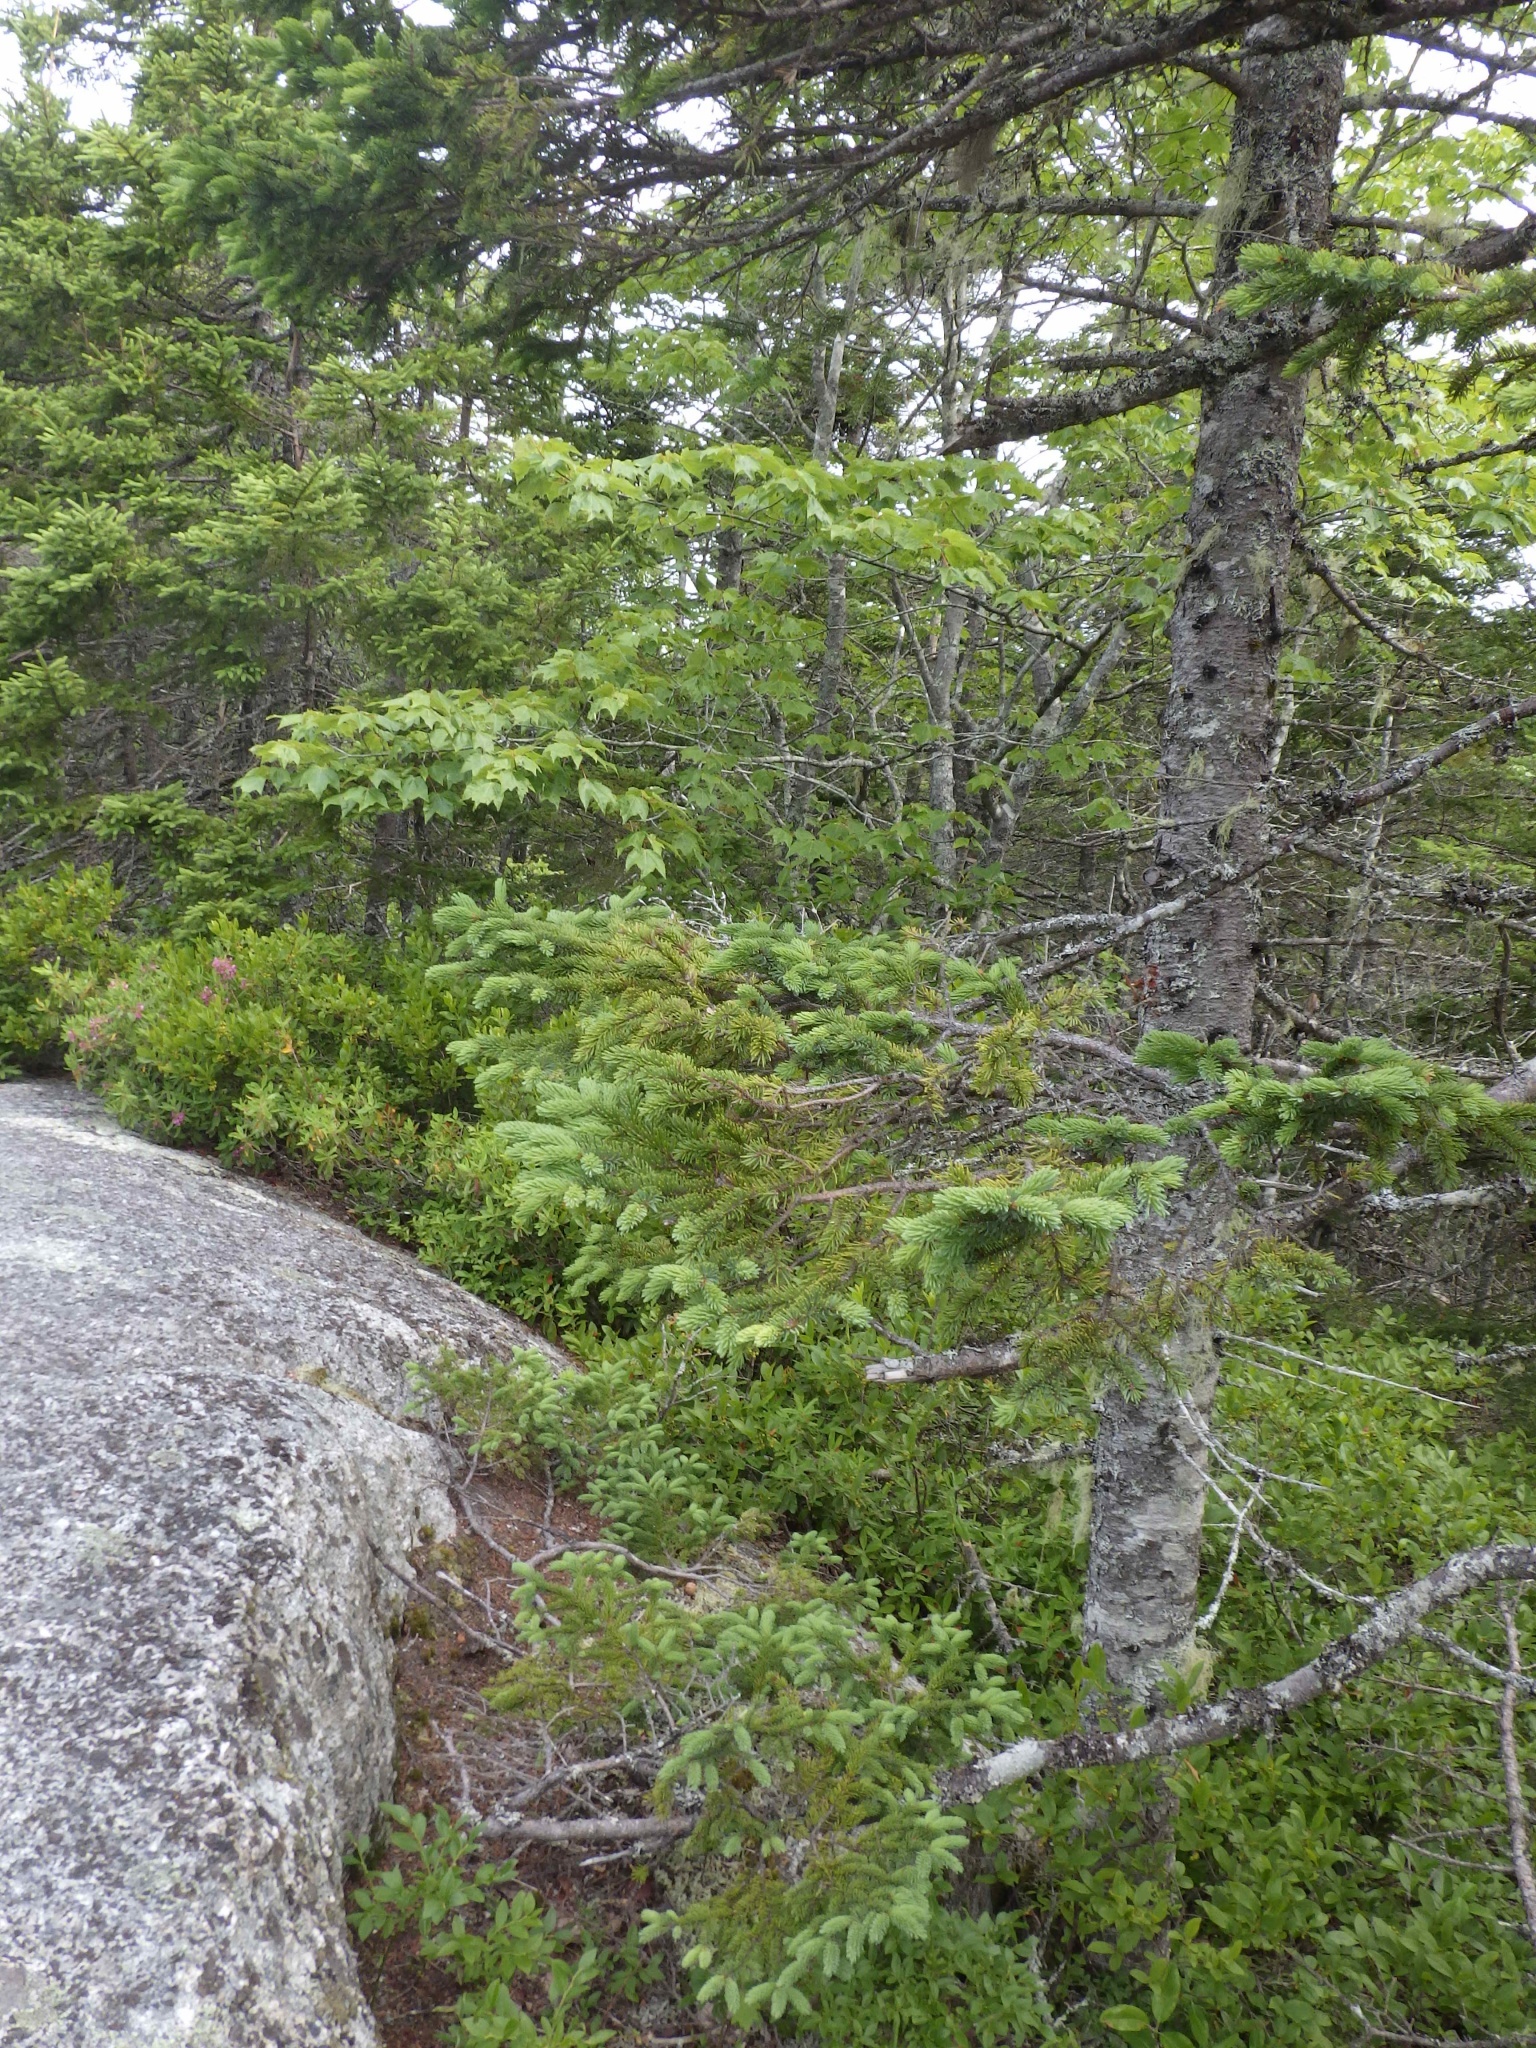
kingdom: Plantae
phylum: Tracheophyta
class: Pinopsida
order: Pinales
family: Pinaceae
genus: Picea
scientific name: Picea mariana
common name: Black spruce
